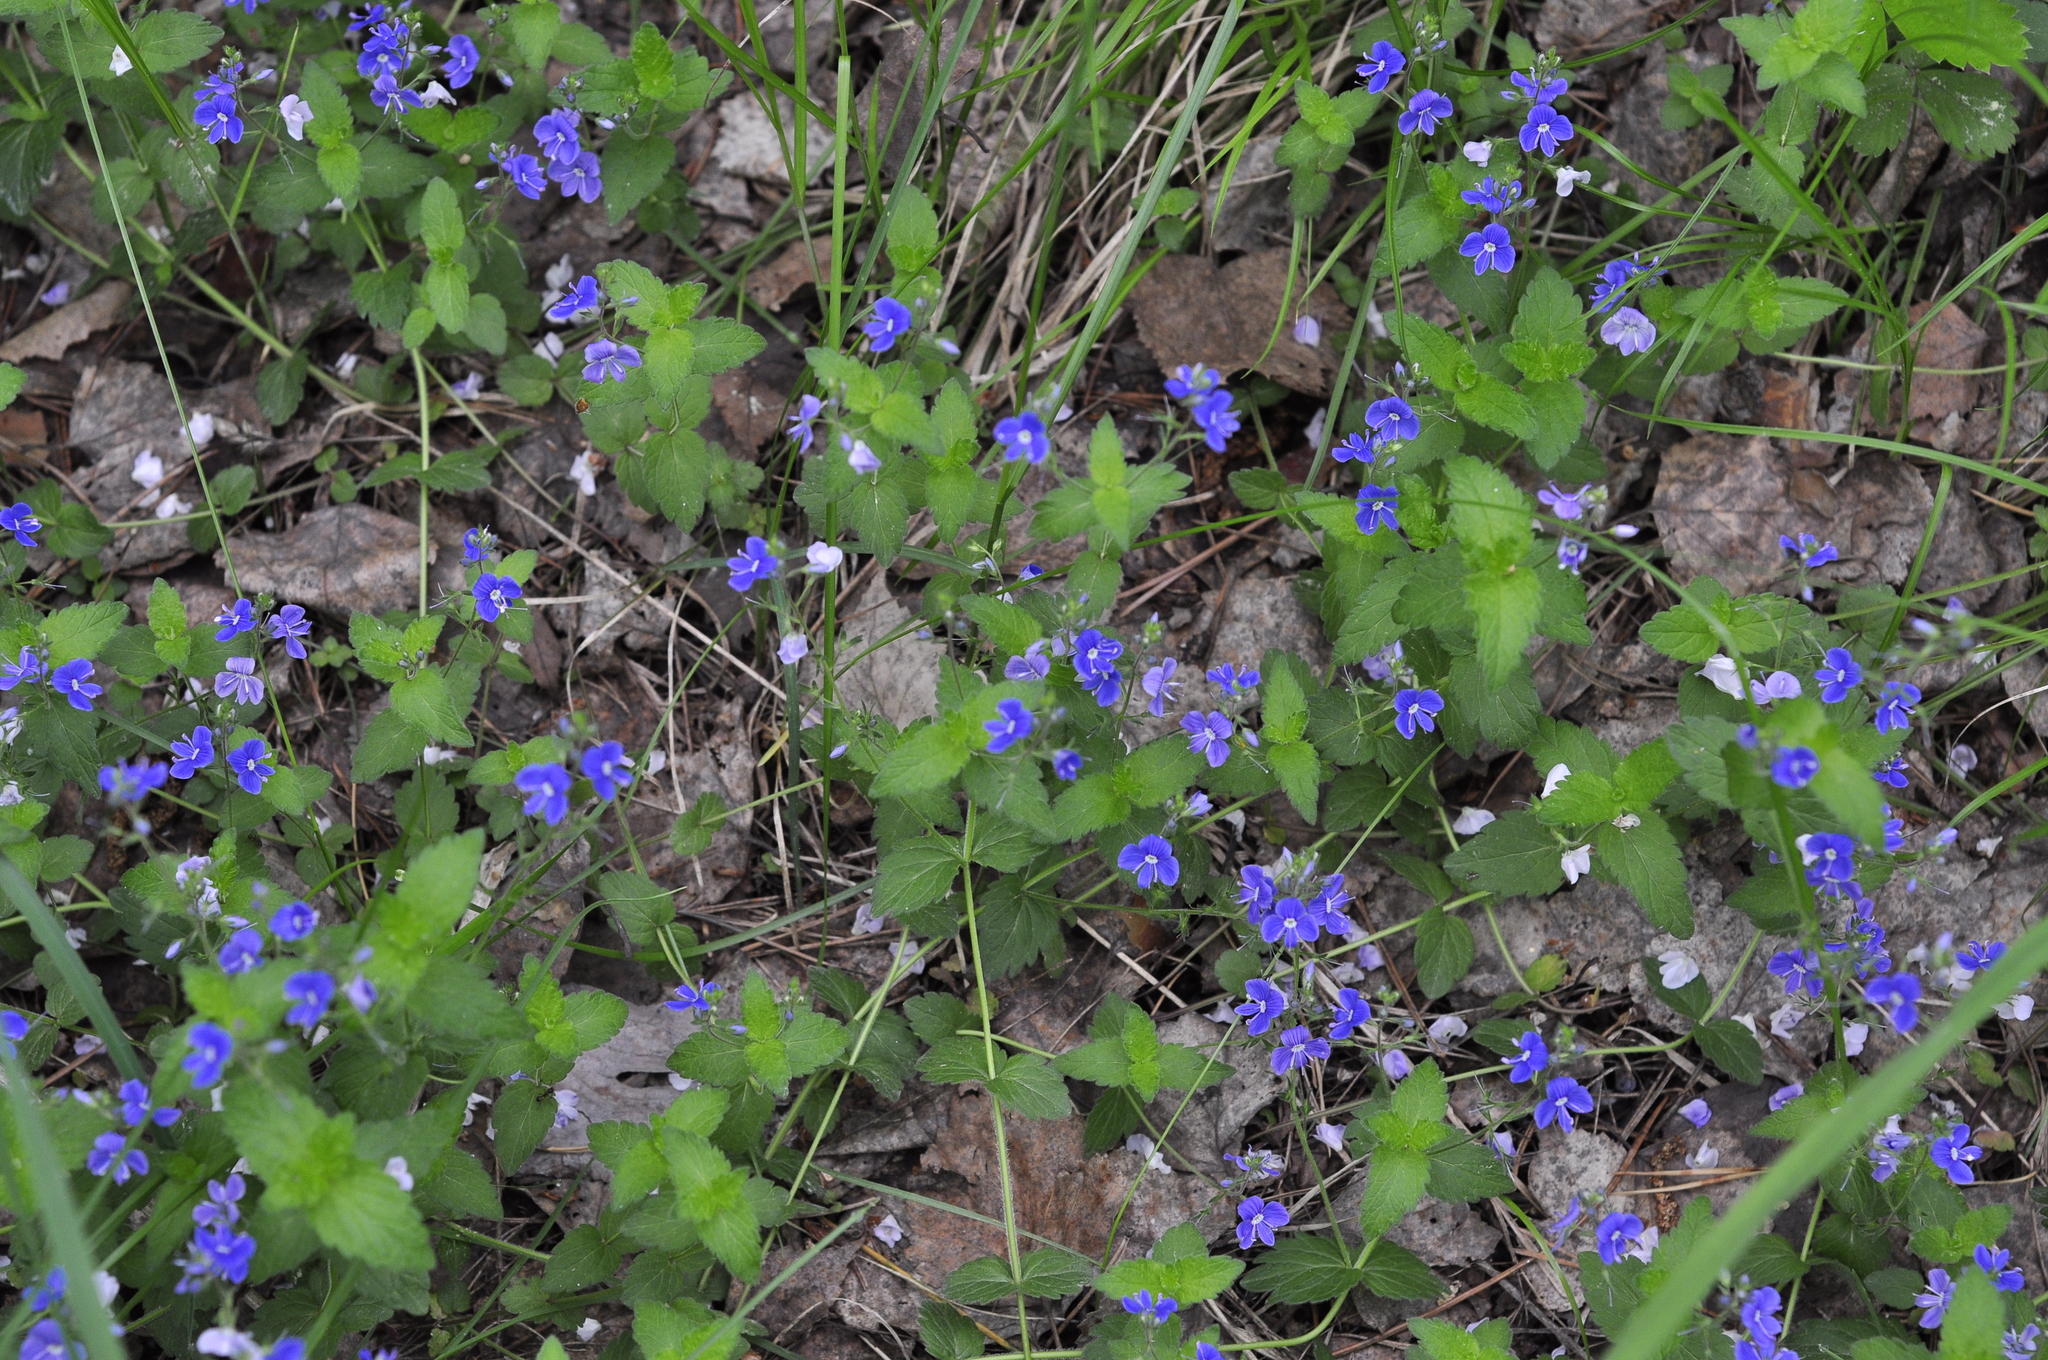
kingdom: Plantae
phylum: Tracheophyta
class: Magnoliopsida
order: Lamiales
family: Plantaginaceae
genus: Veronica
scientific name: Veronica chamaedrys
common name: Germander speedwell
